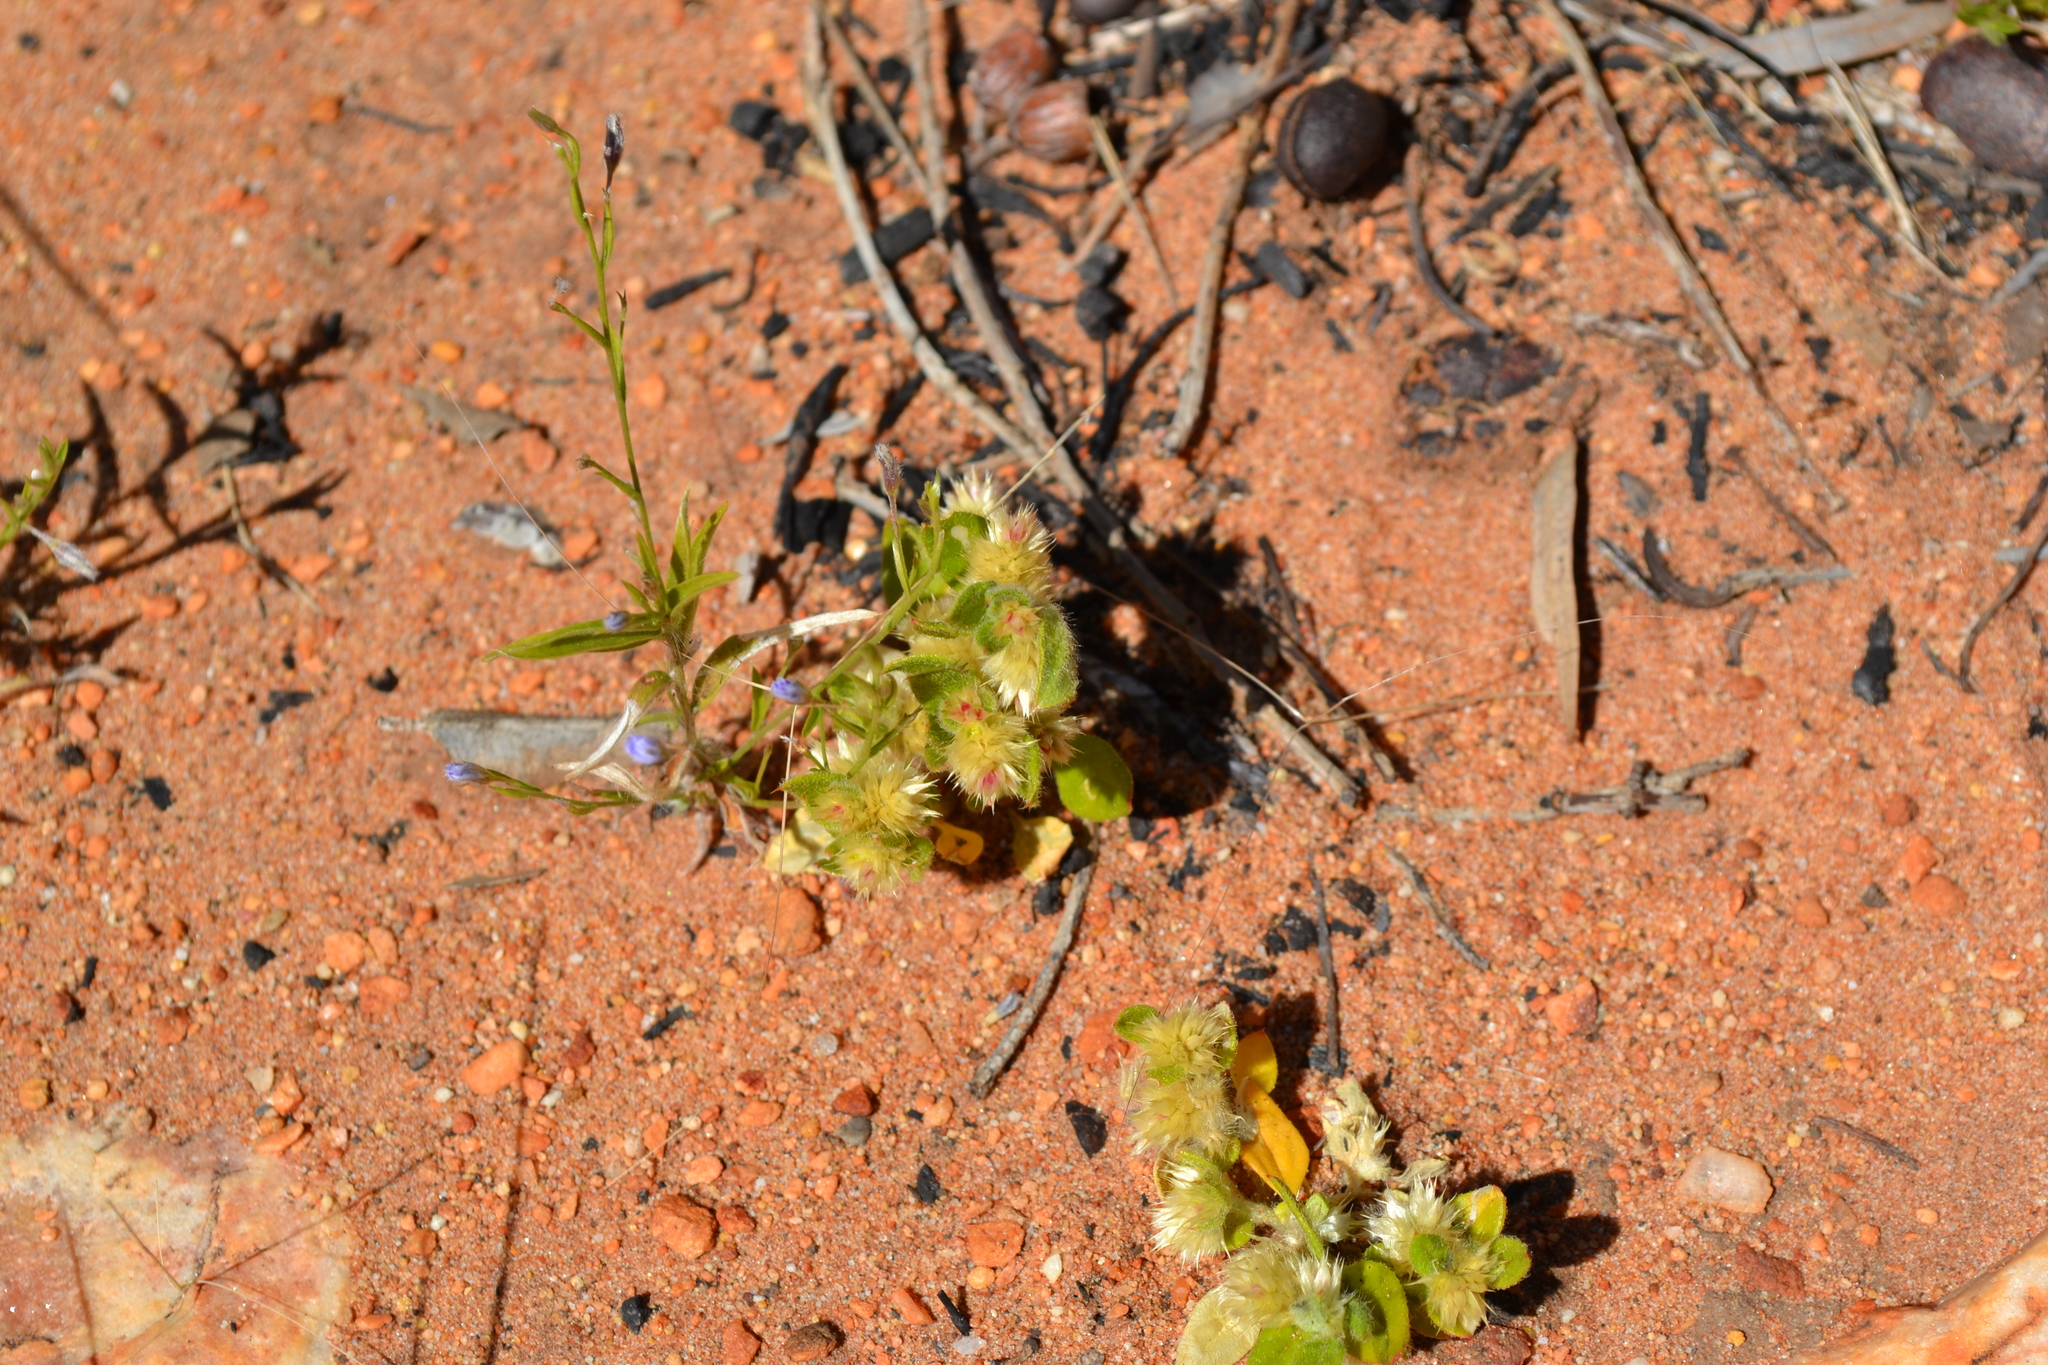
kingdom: Plantae
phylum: Tracheophyta
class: Magnoliopsida
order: Caryophyllales
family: Amaranthaceae
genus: Ptilotus
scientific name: Ptilotus decipiens
